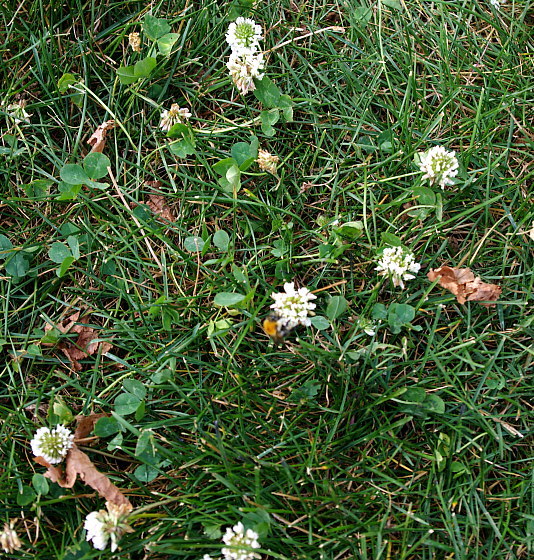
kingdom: Plantae
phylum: Tracheophyta
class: Magnoliopsida
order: Fabales
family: Fabaceae
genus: Trifolium
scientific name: Trifolium repens
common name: White clover
